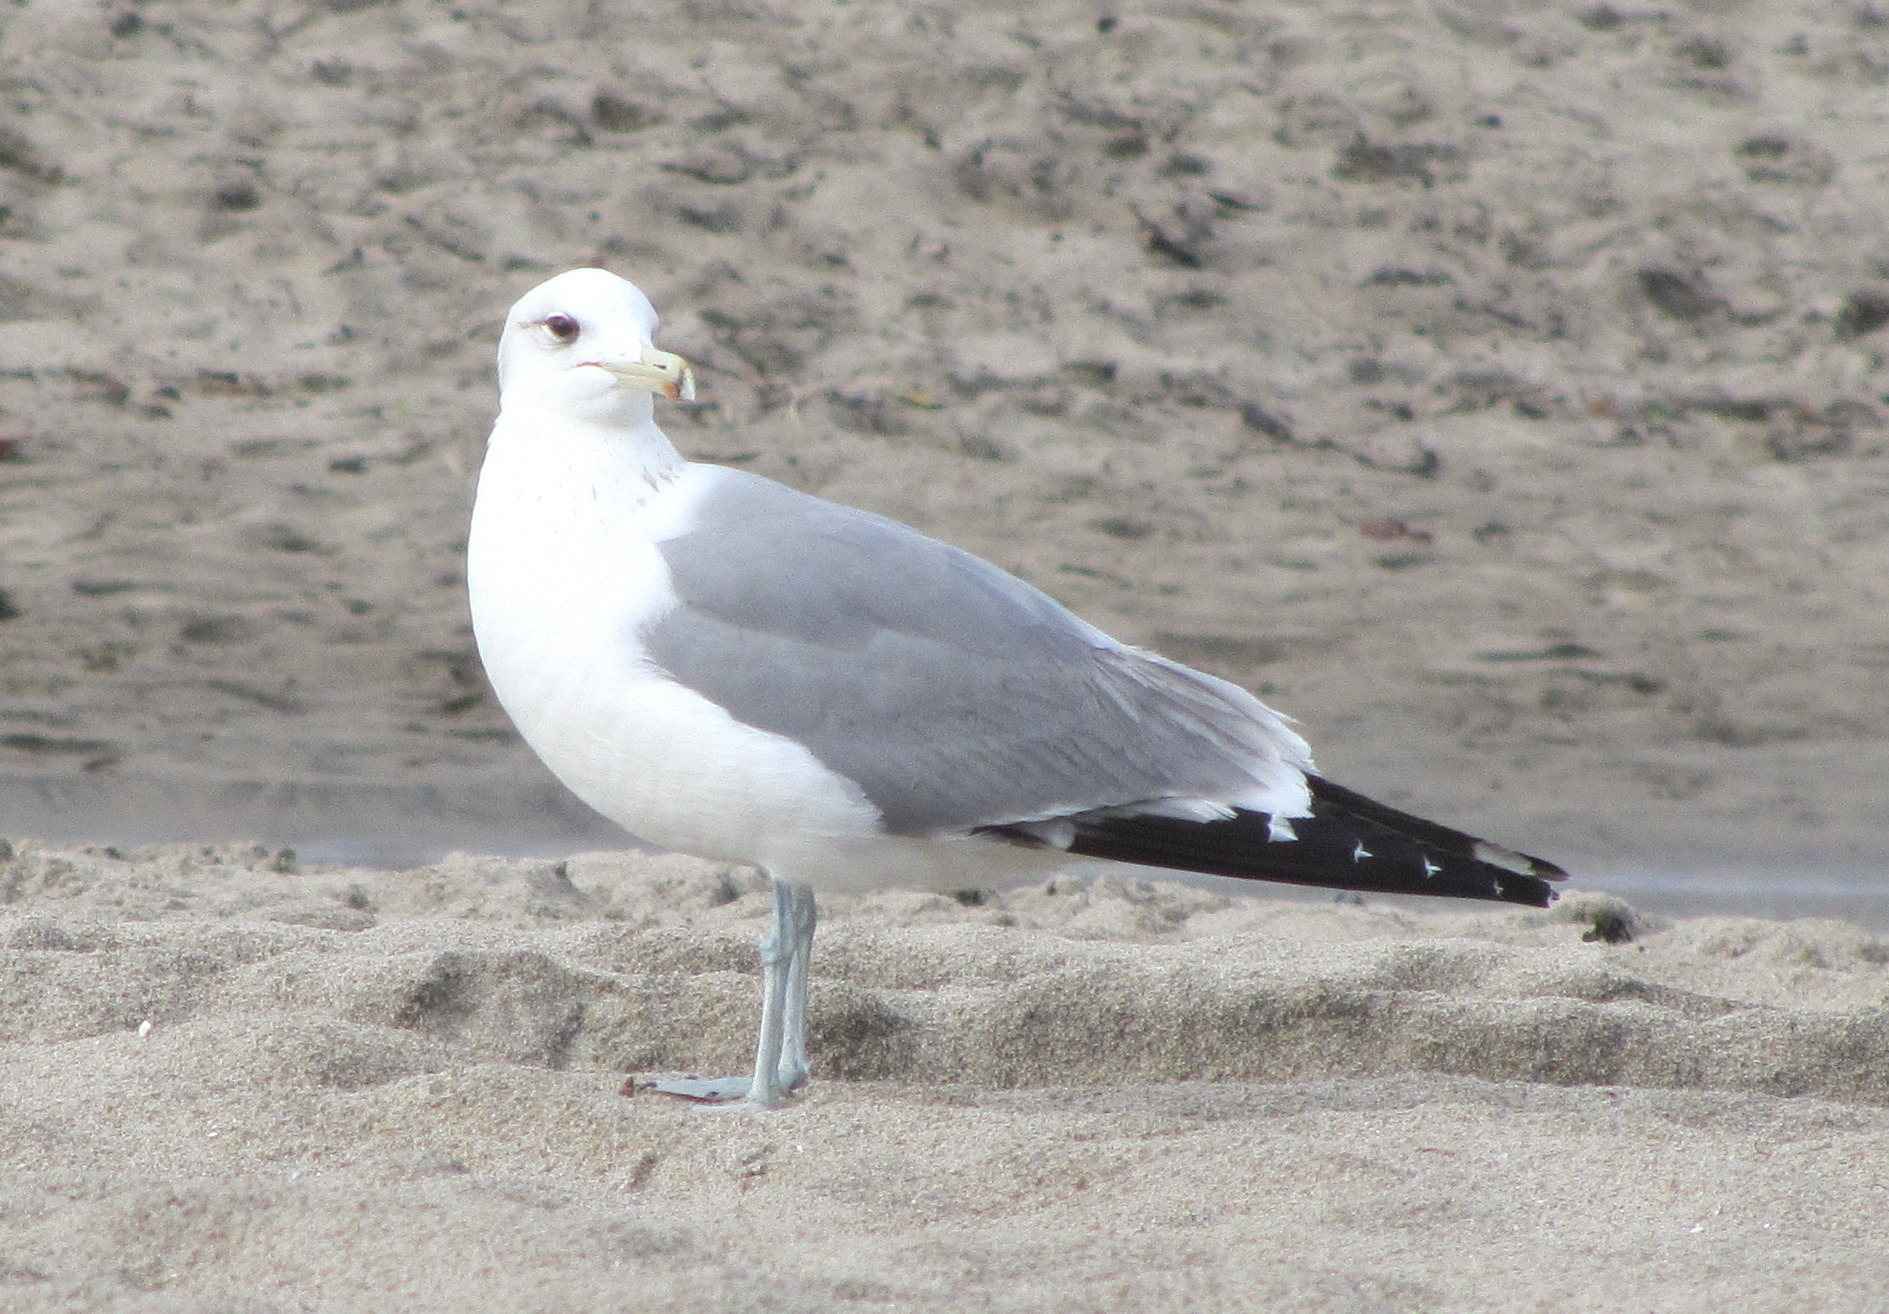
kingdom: Animalia
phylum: Chordata
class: Aves
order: Charadriiformes
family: Laridae
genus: Larus
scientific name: Larus californicus
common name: California gull
